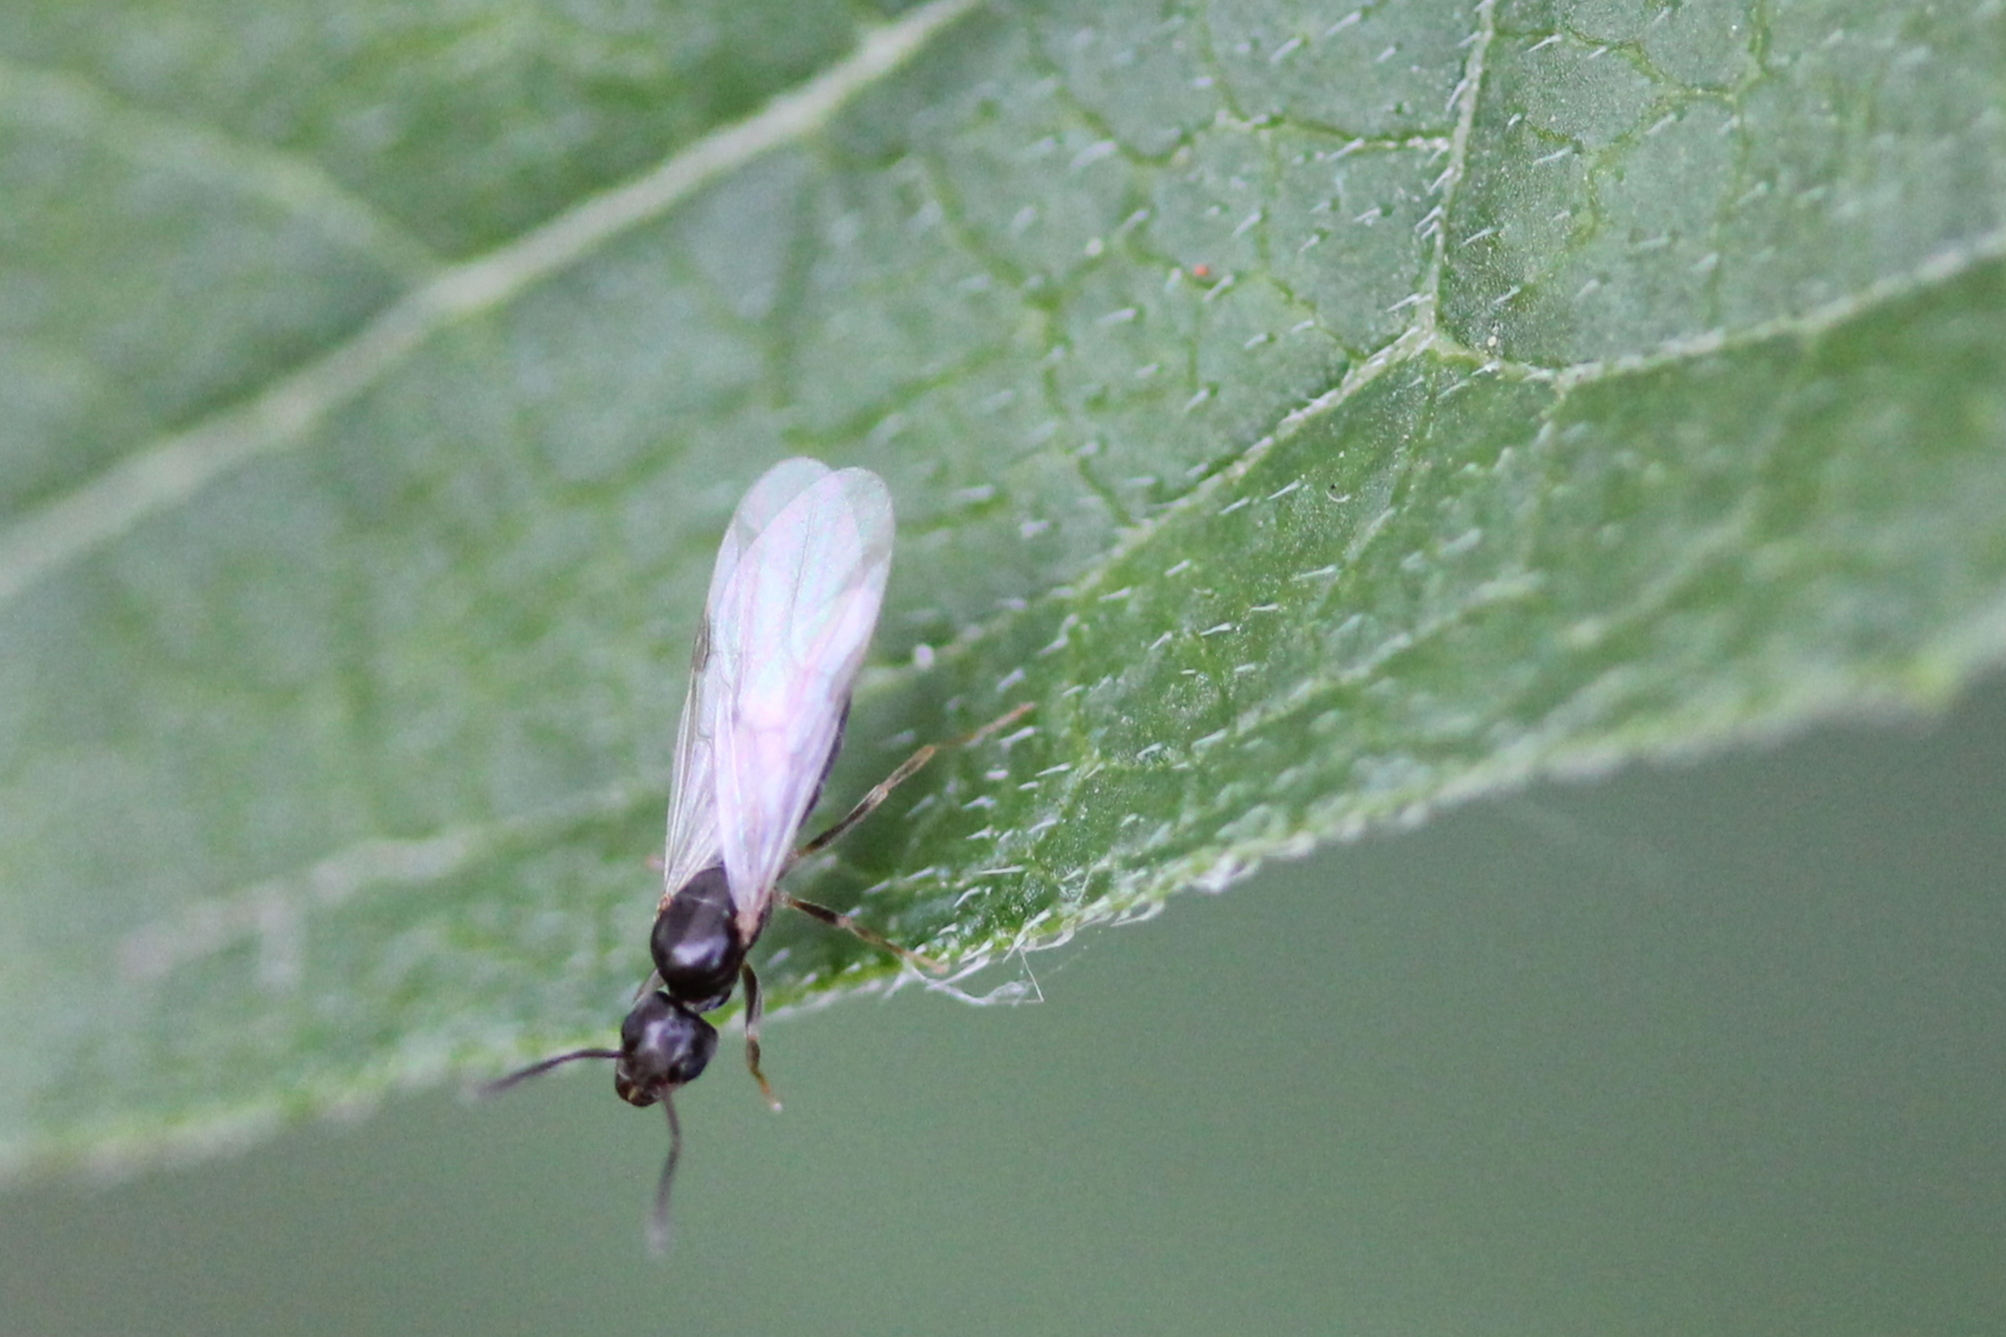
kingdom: Animalia
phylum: Arthropoda
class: Insecta
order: Hymenoptera
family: Formicidae
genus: Tapinoma
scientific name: Tapinoma sessile
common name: Odorous house ant
